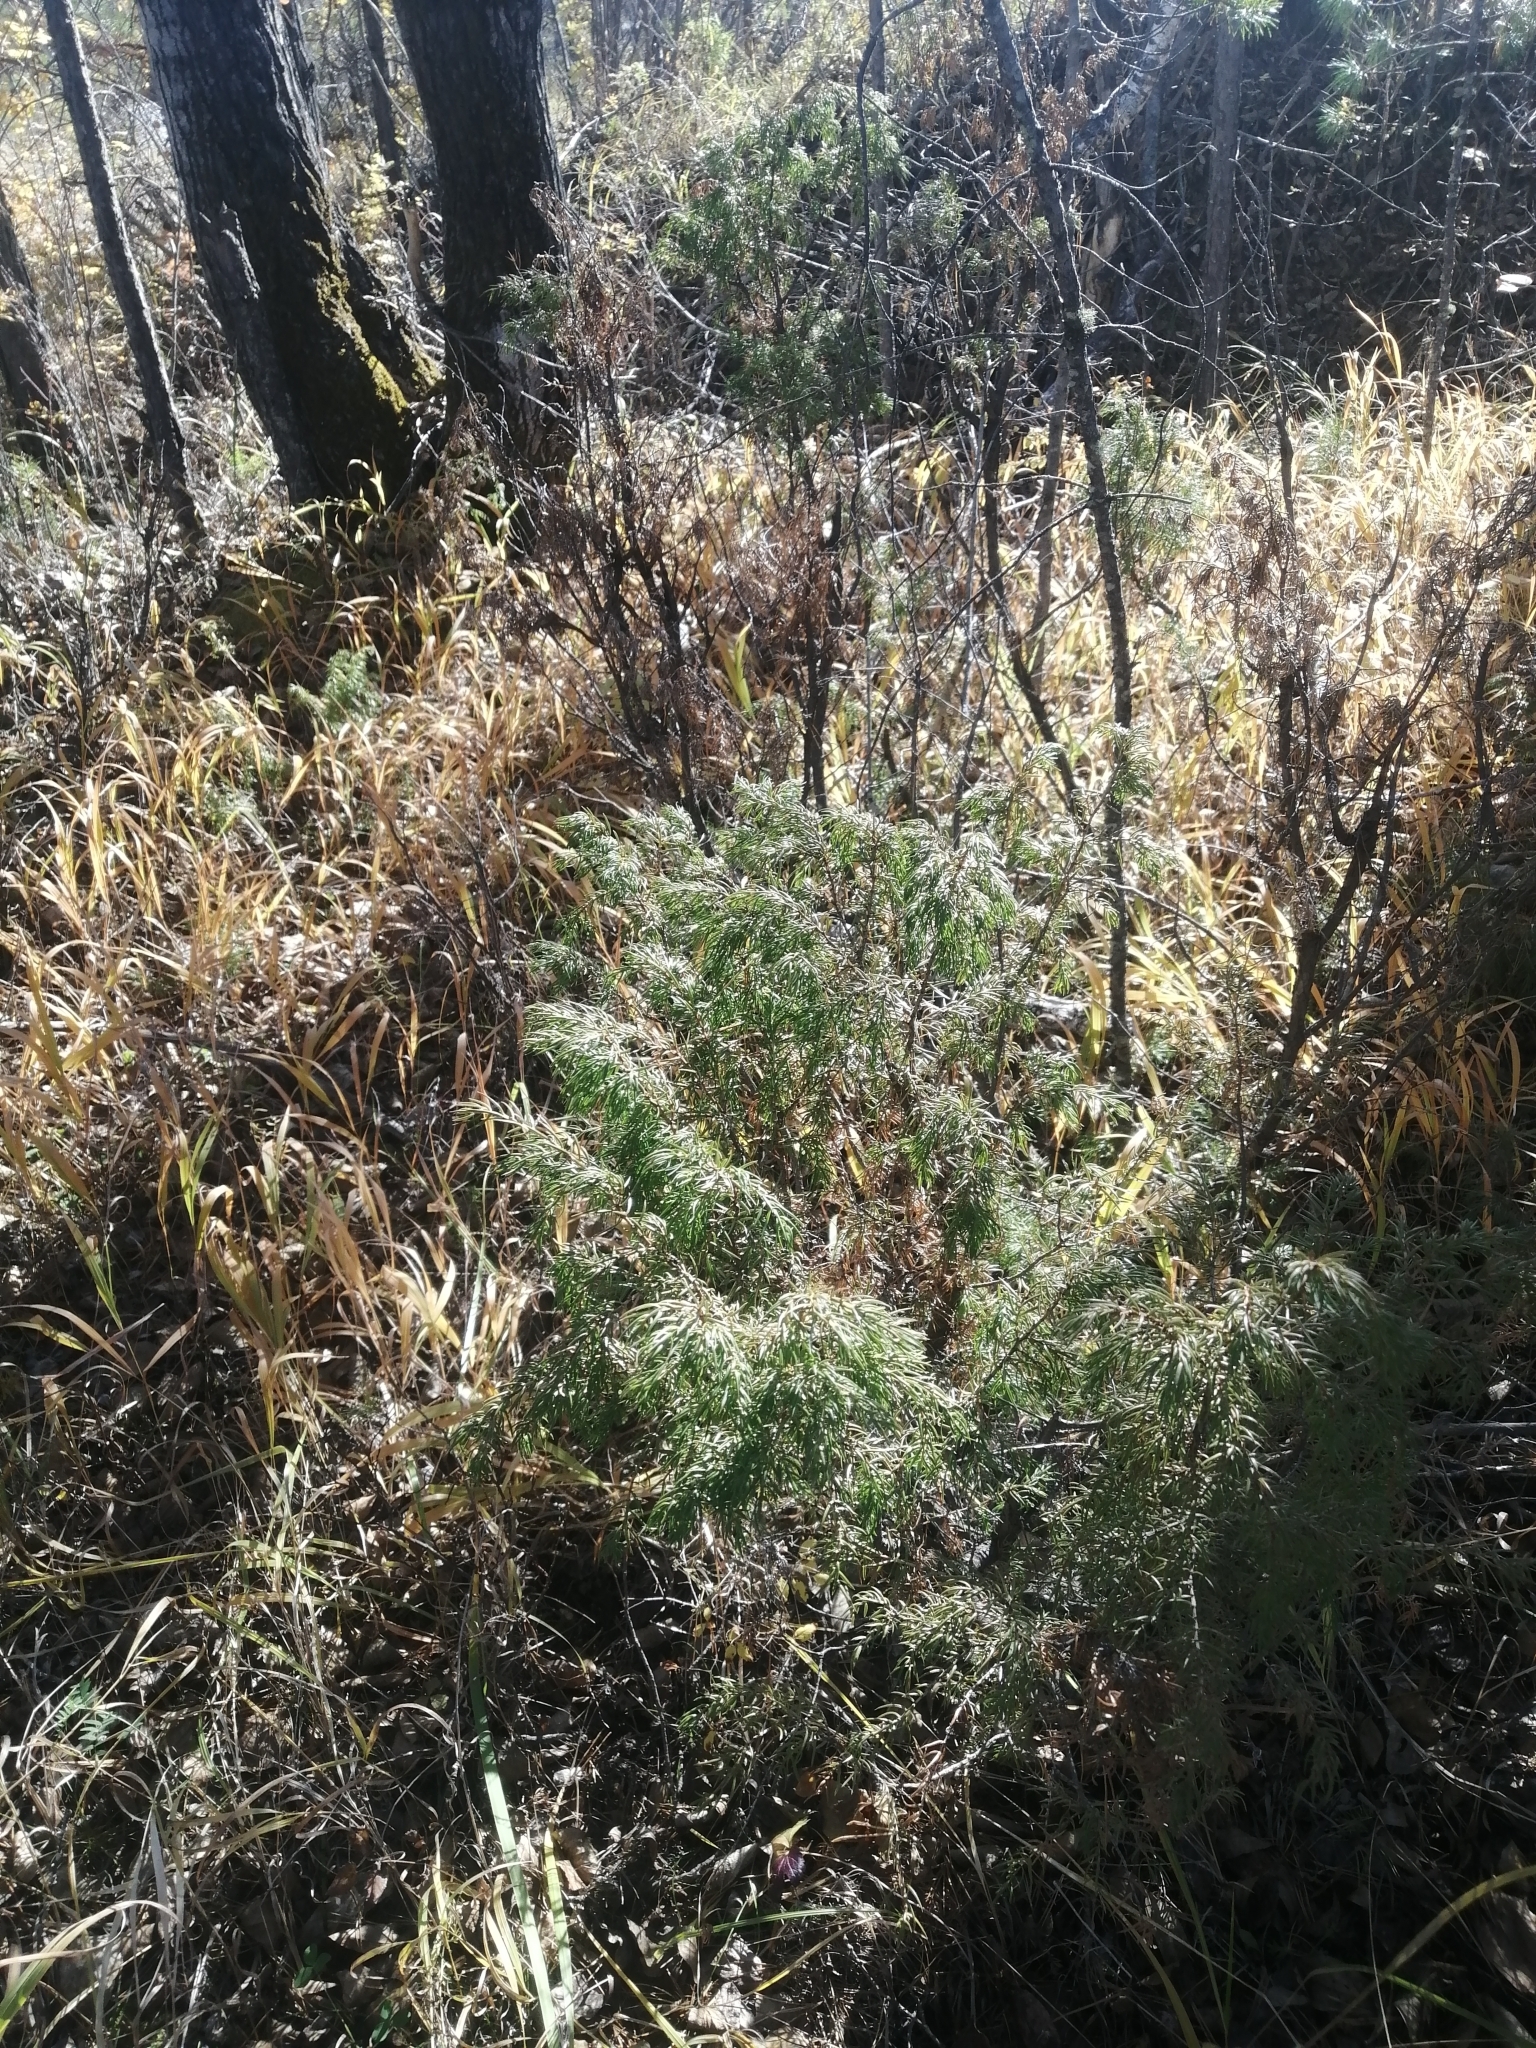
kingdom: Plantae
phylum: Tracheophyta
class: Pinopsida
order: Pinales
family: Cupressaceae
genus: Juniperus
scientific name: Juniperus communis
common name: Common juniper
